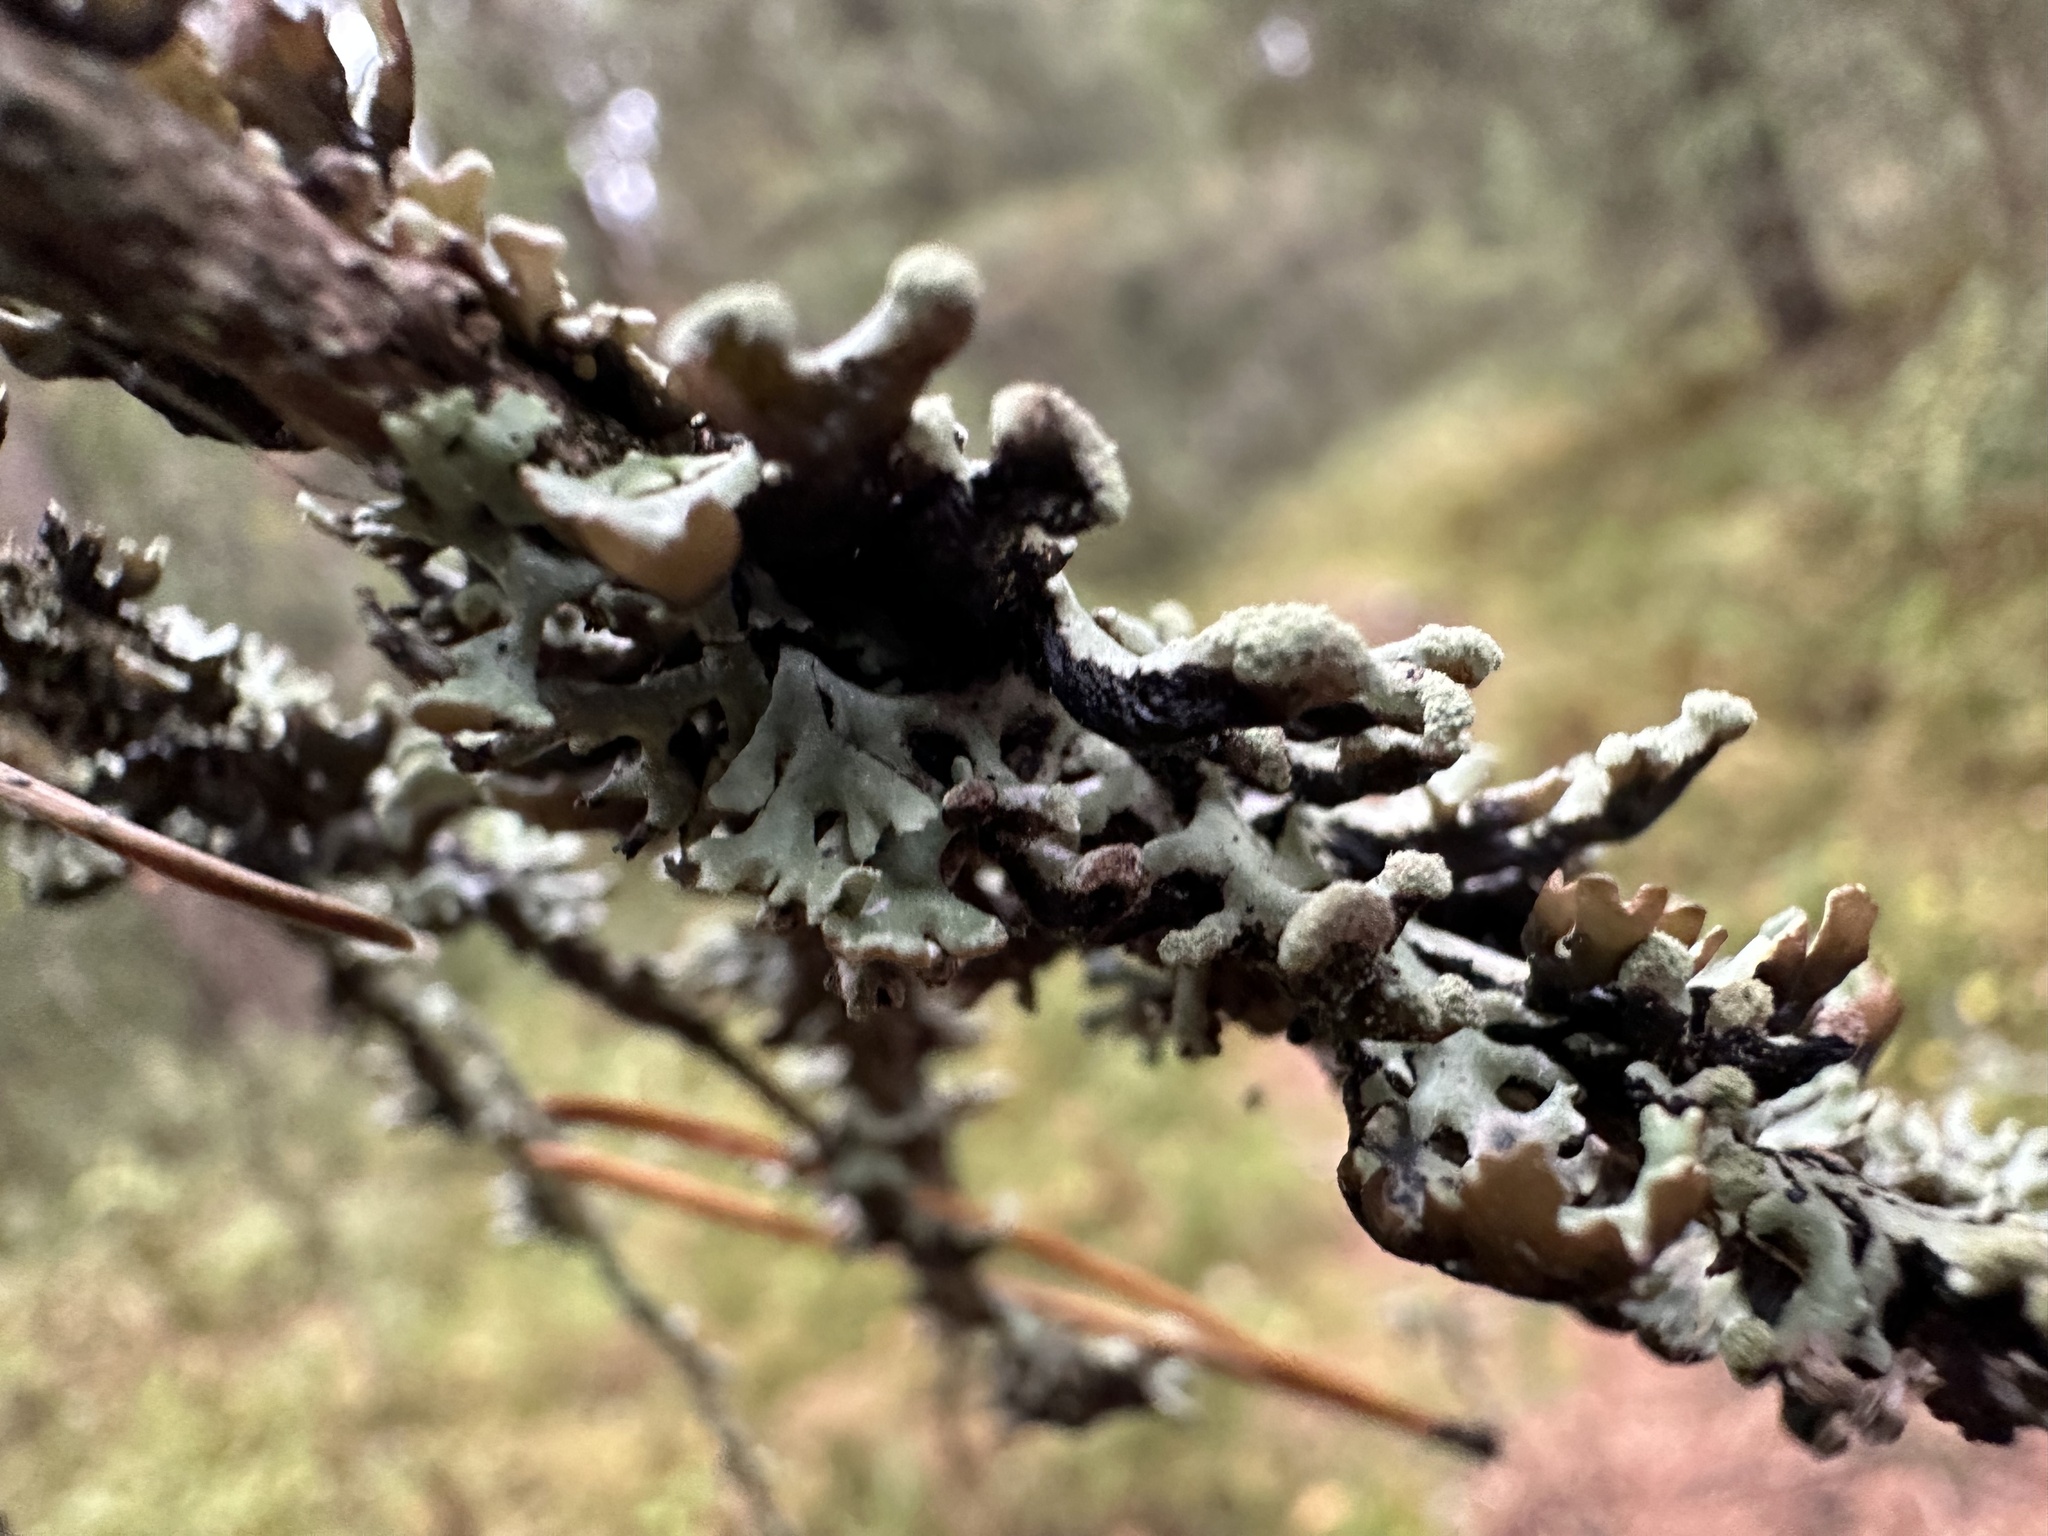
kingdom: Fungi
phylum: Ascomycota
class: Lecanoromycetes
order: Lecanorales
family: Parmeliaceae
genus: Hypogymnia
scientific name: Hypogymnia tubulosa
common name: Powder-headed tube lichen
